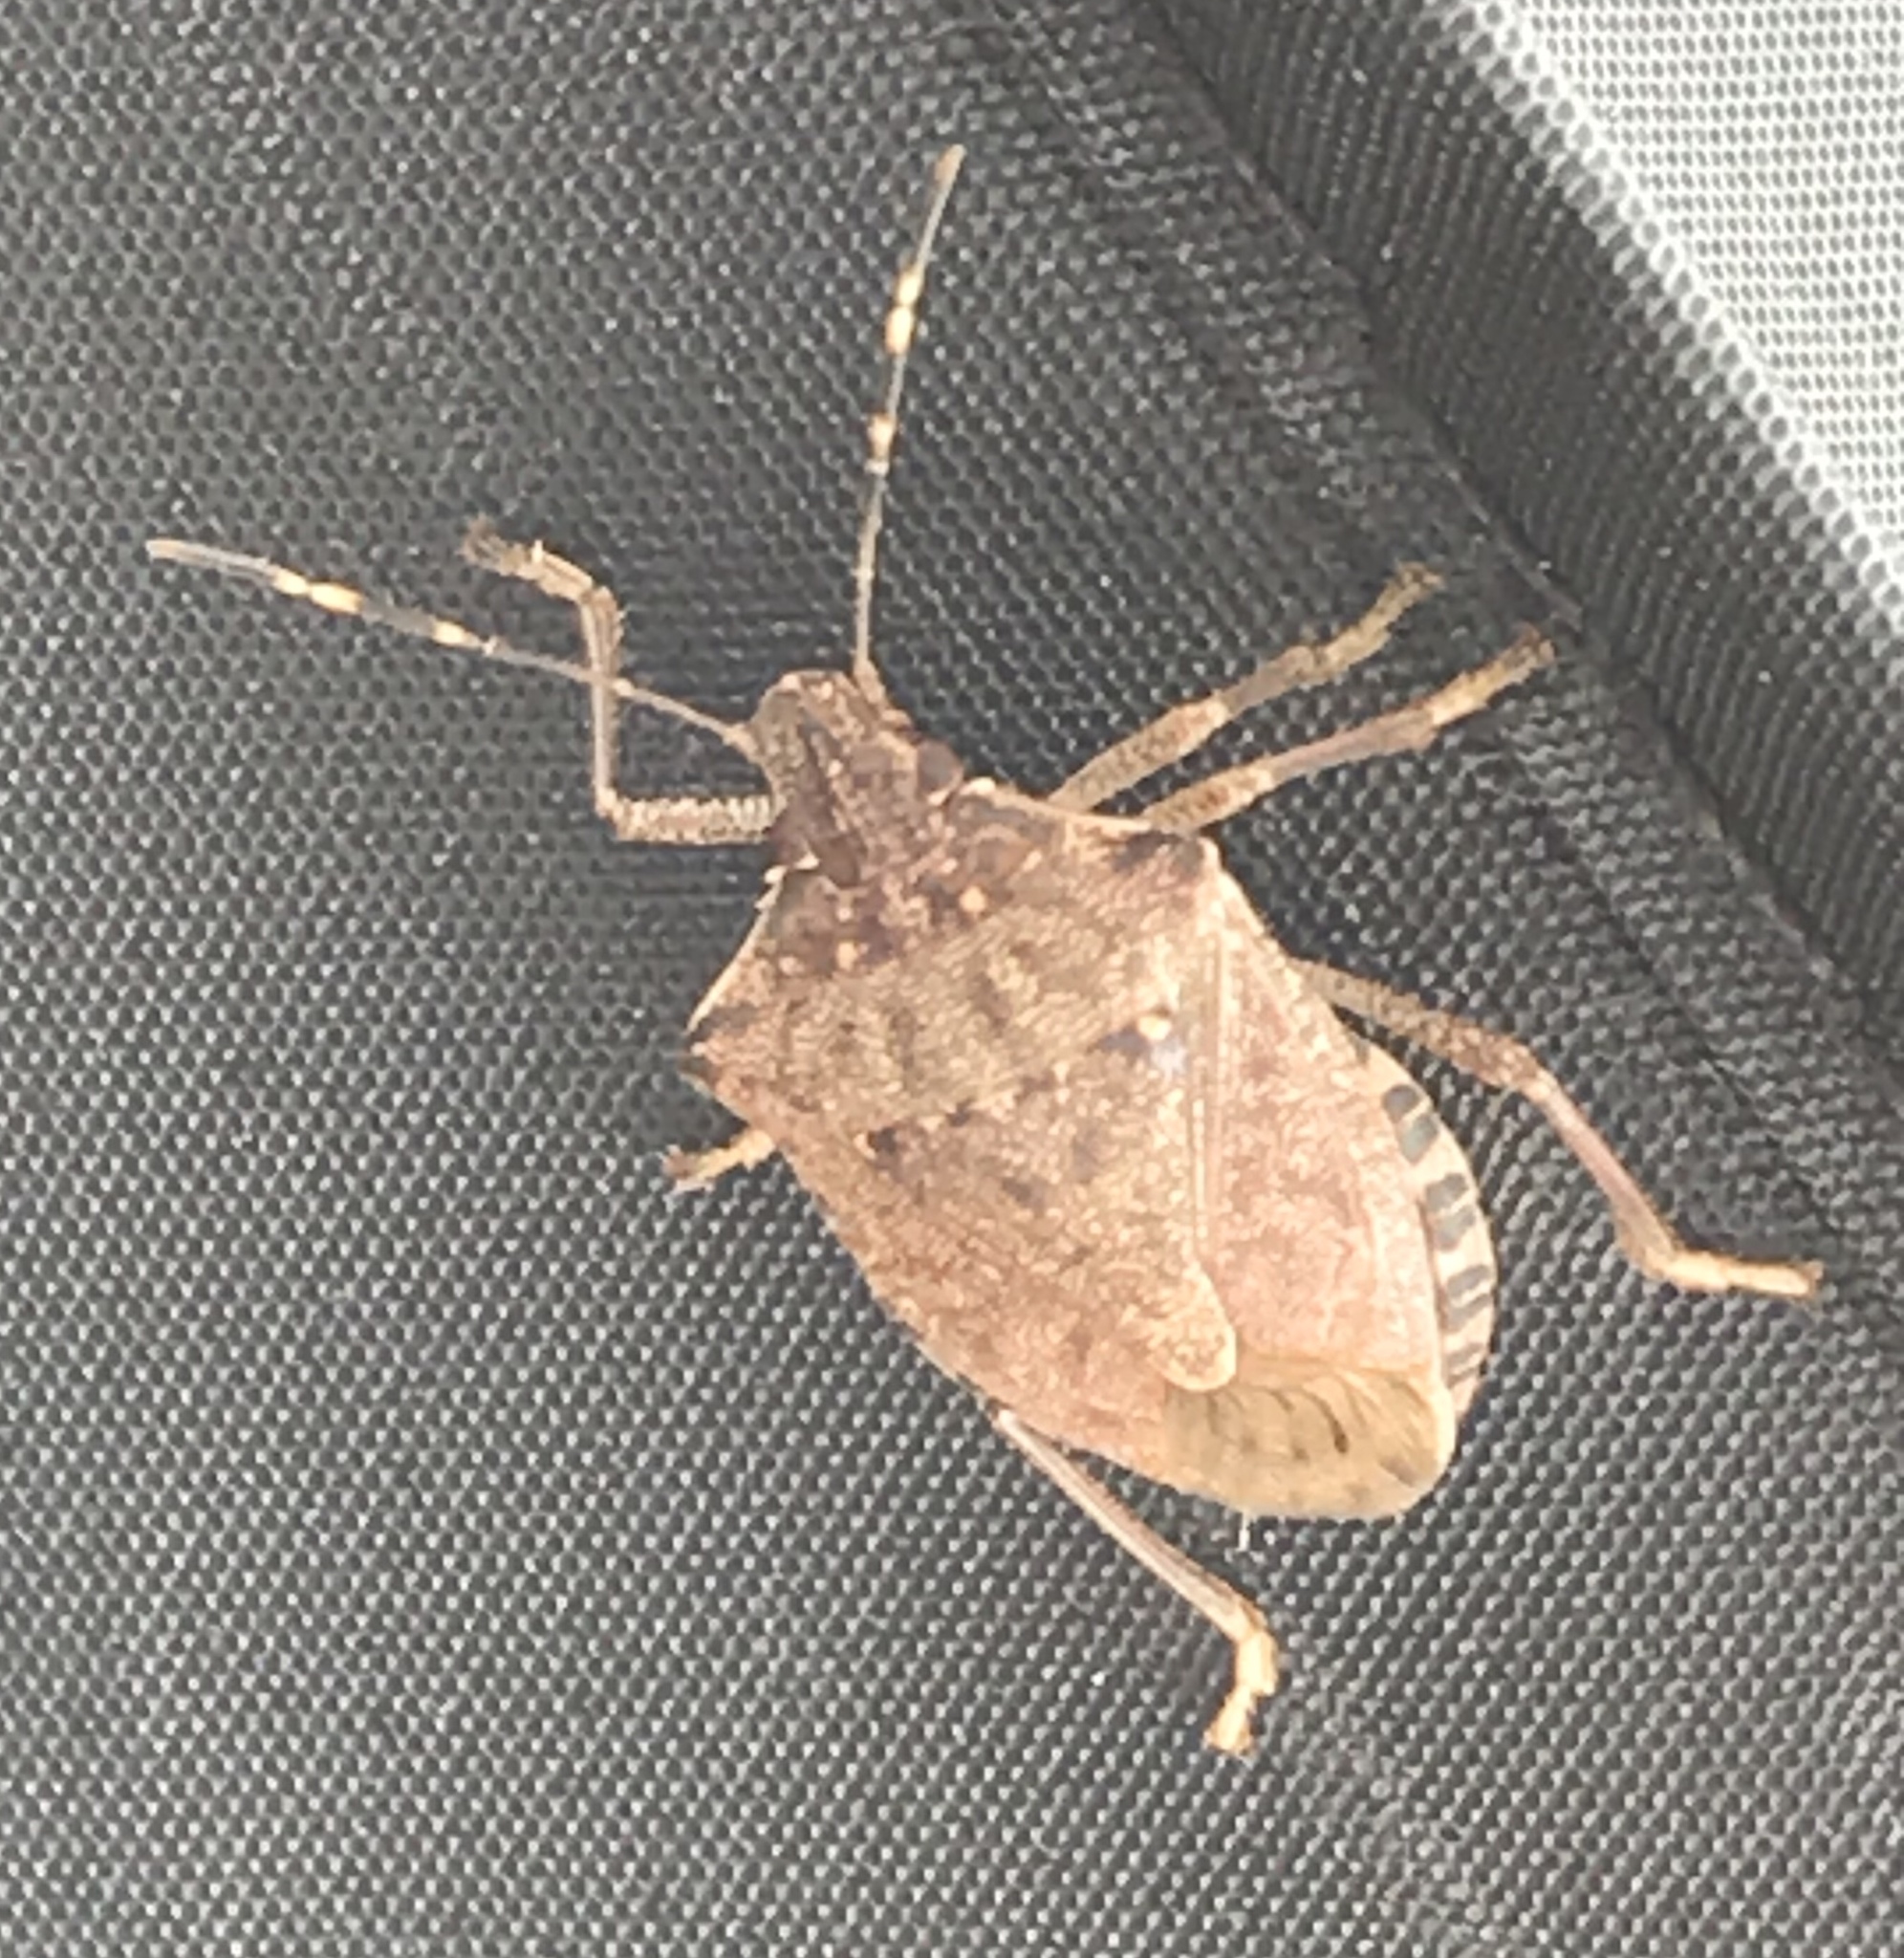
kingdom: Animalia
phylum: Arthropoda
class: Insecta
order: Hemiptera
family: Pentatomidae
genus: Halyomorpha
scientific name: Halyomorpha halys
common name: Brown marmorated stink bug
